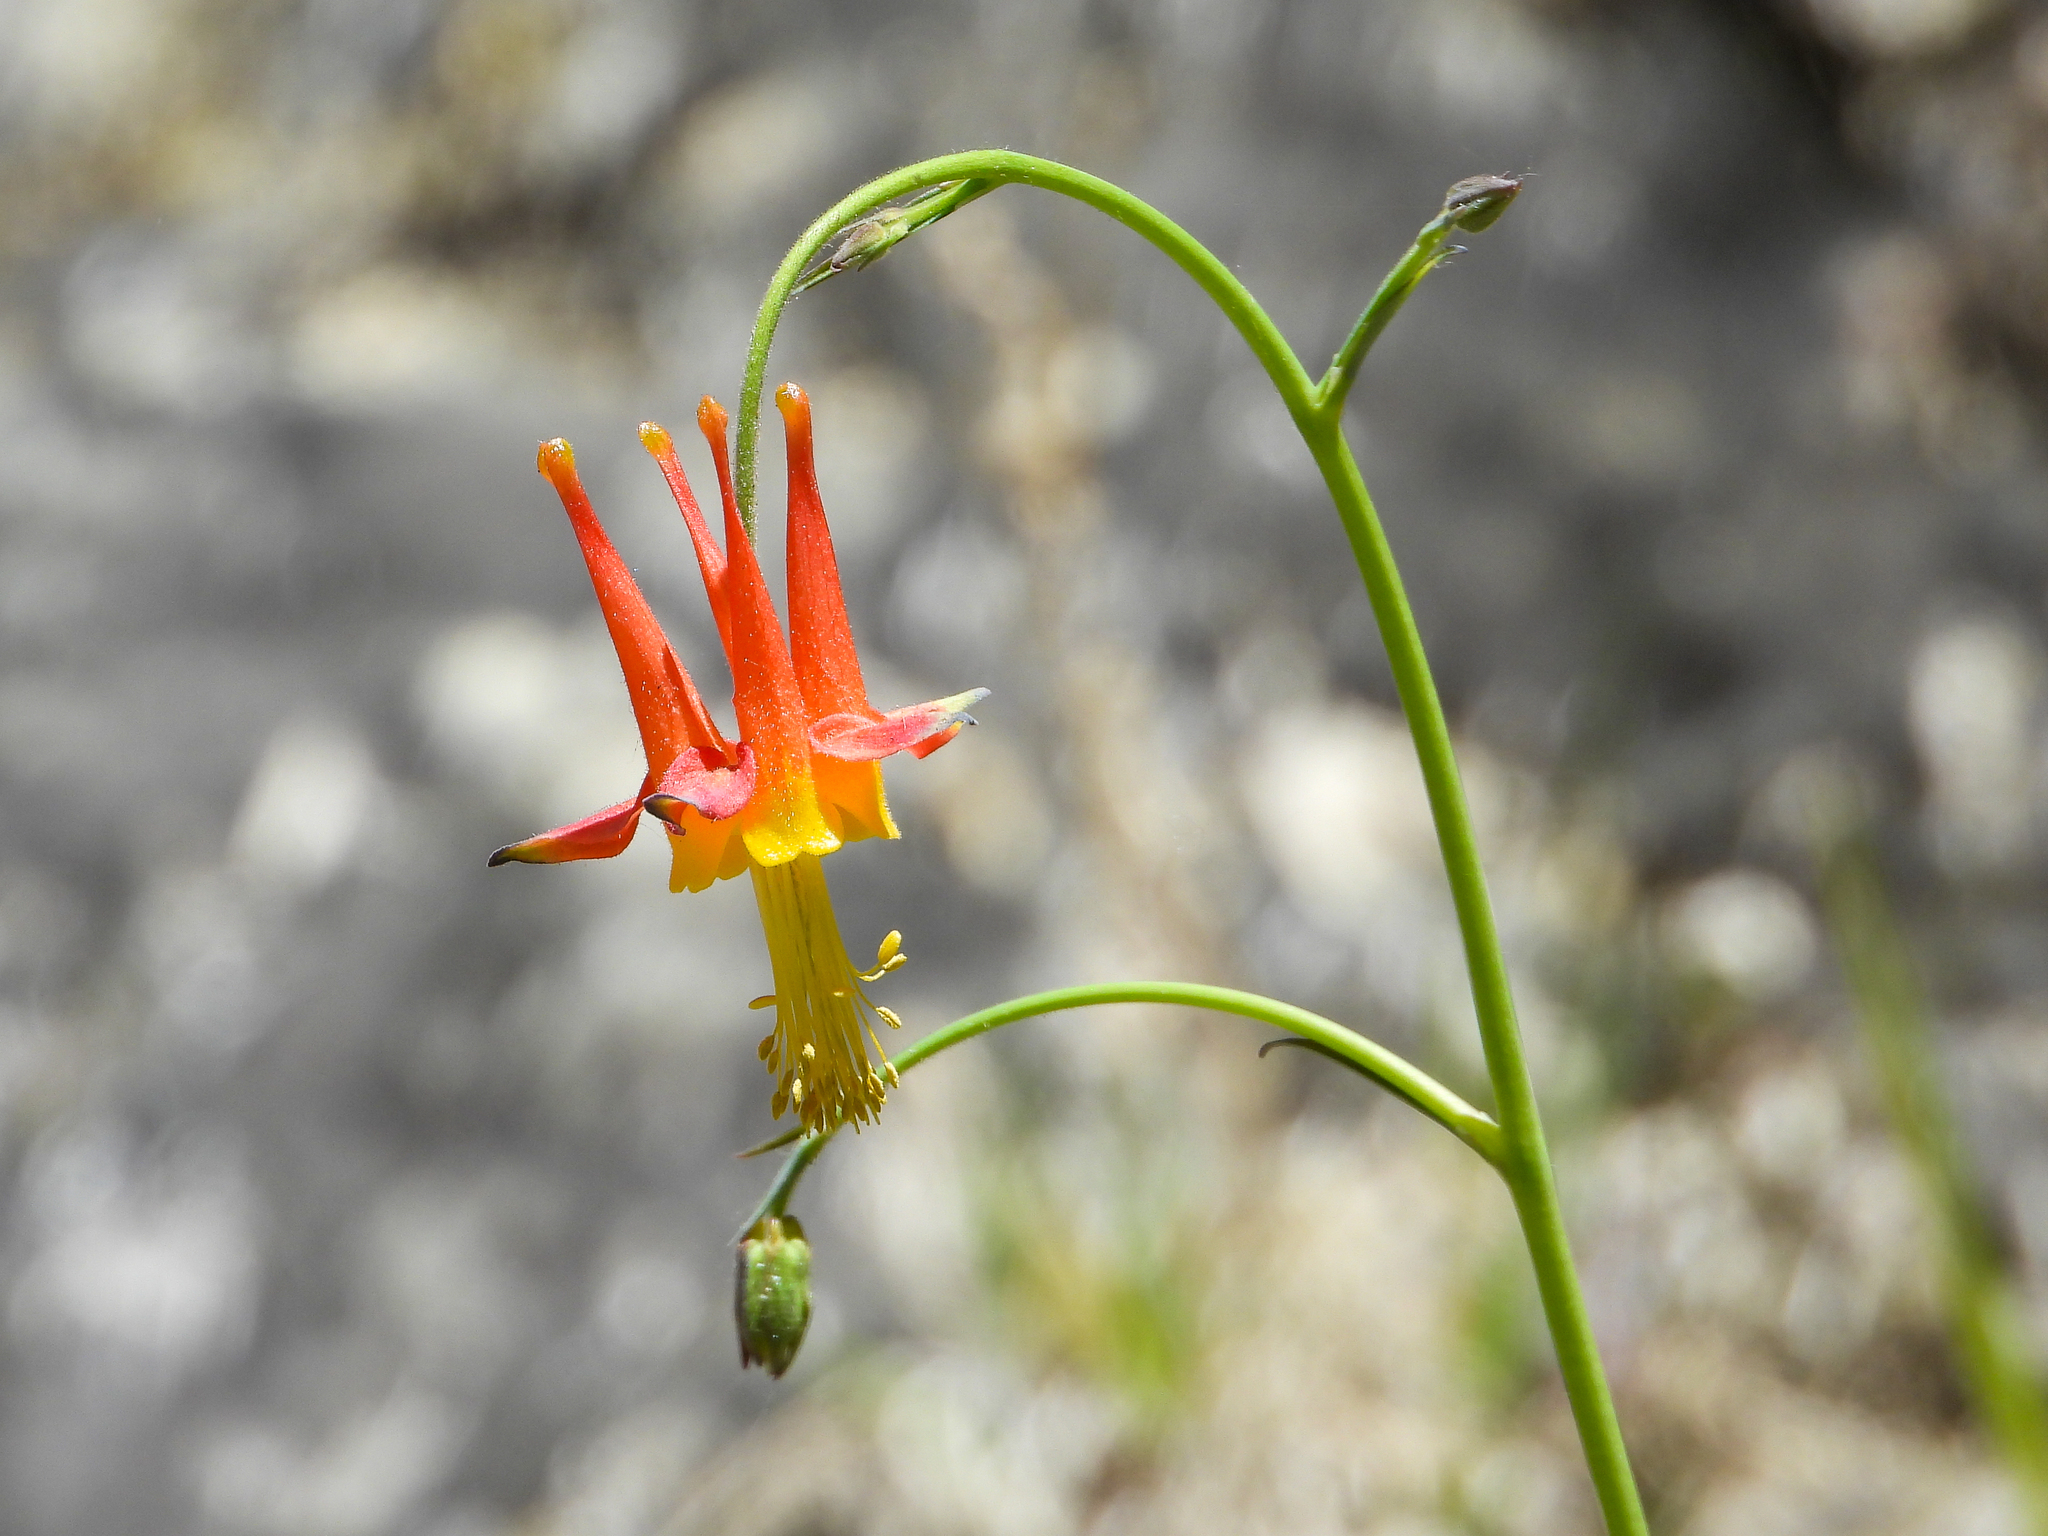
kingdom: Plantae
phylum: Tracheophyta
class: Magnoliopsida
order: Ranunculales
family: Ranunculaceae
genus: Aquilegia
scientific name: Aquilegia formosa
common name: Sitka columbine
